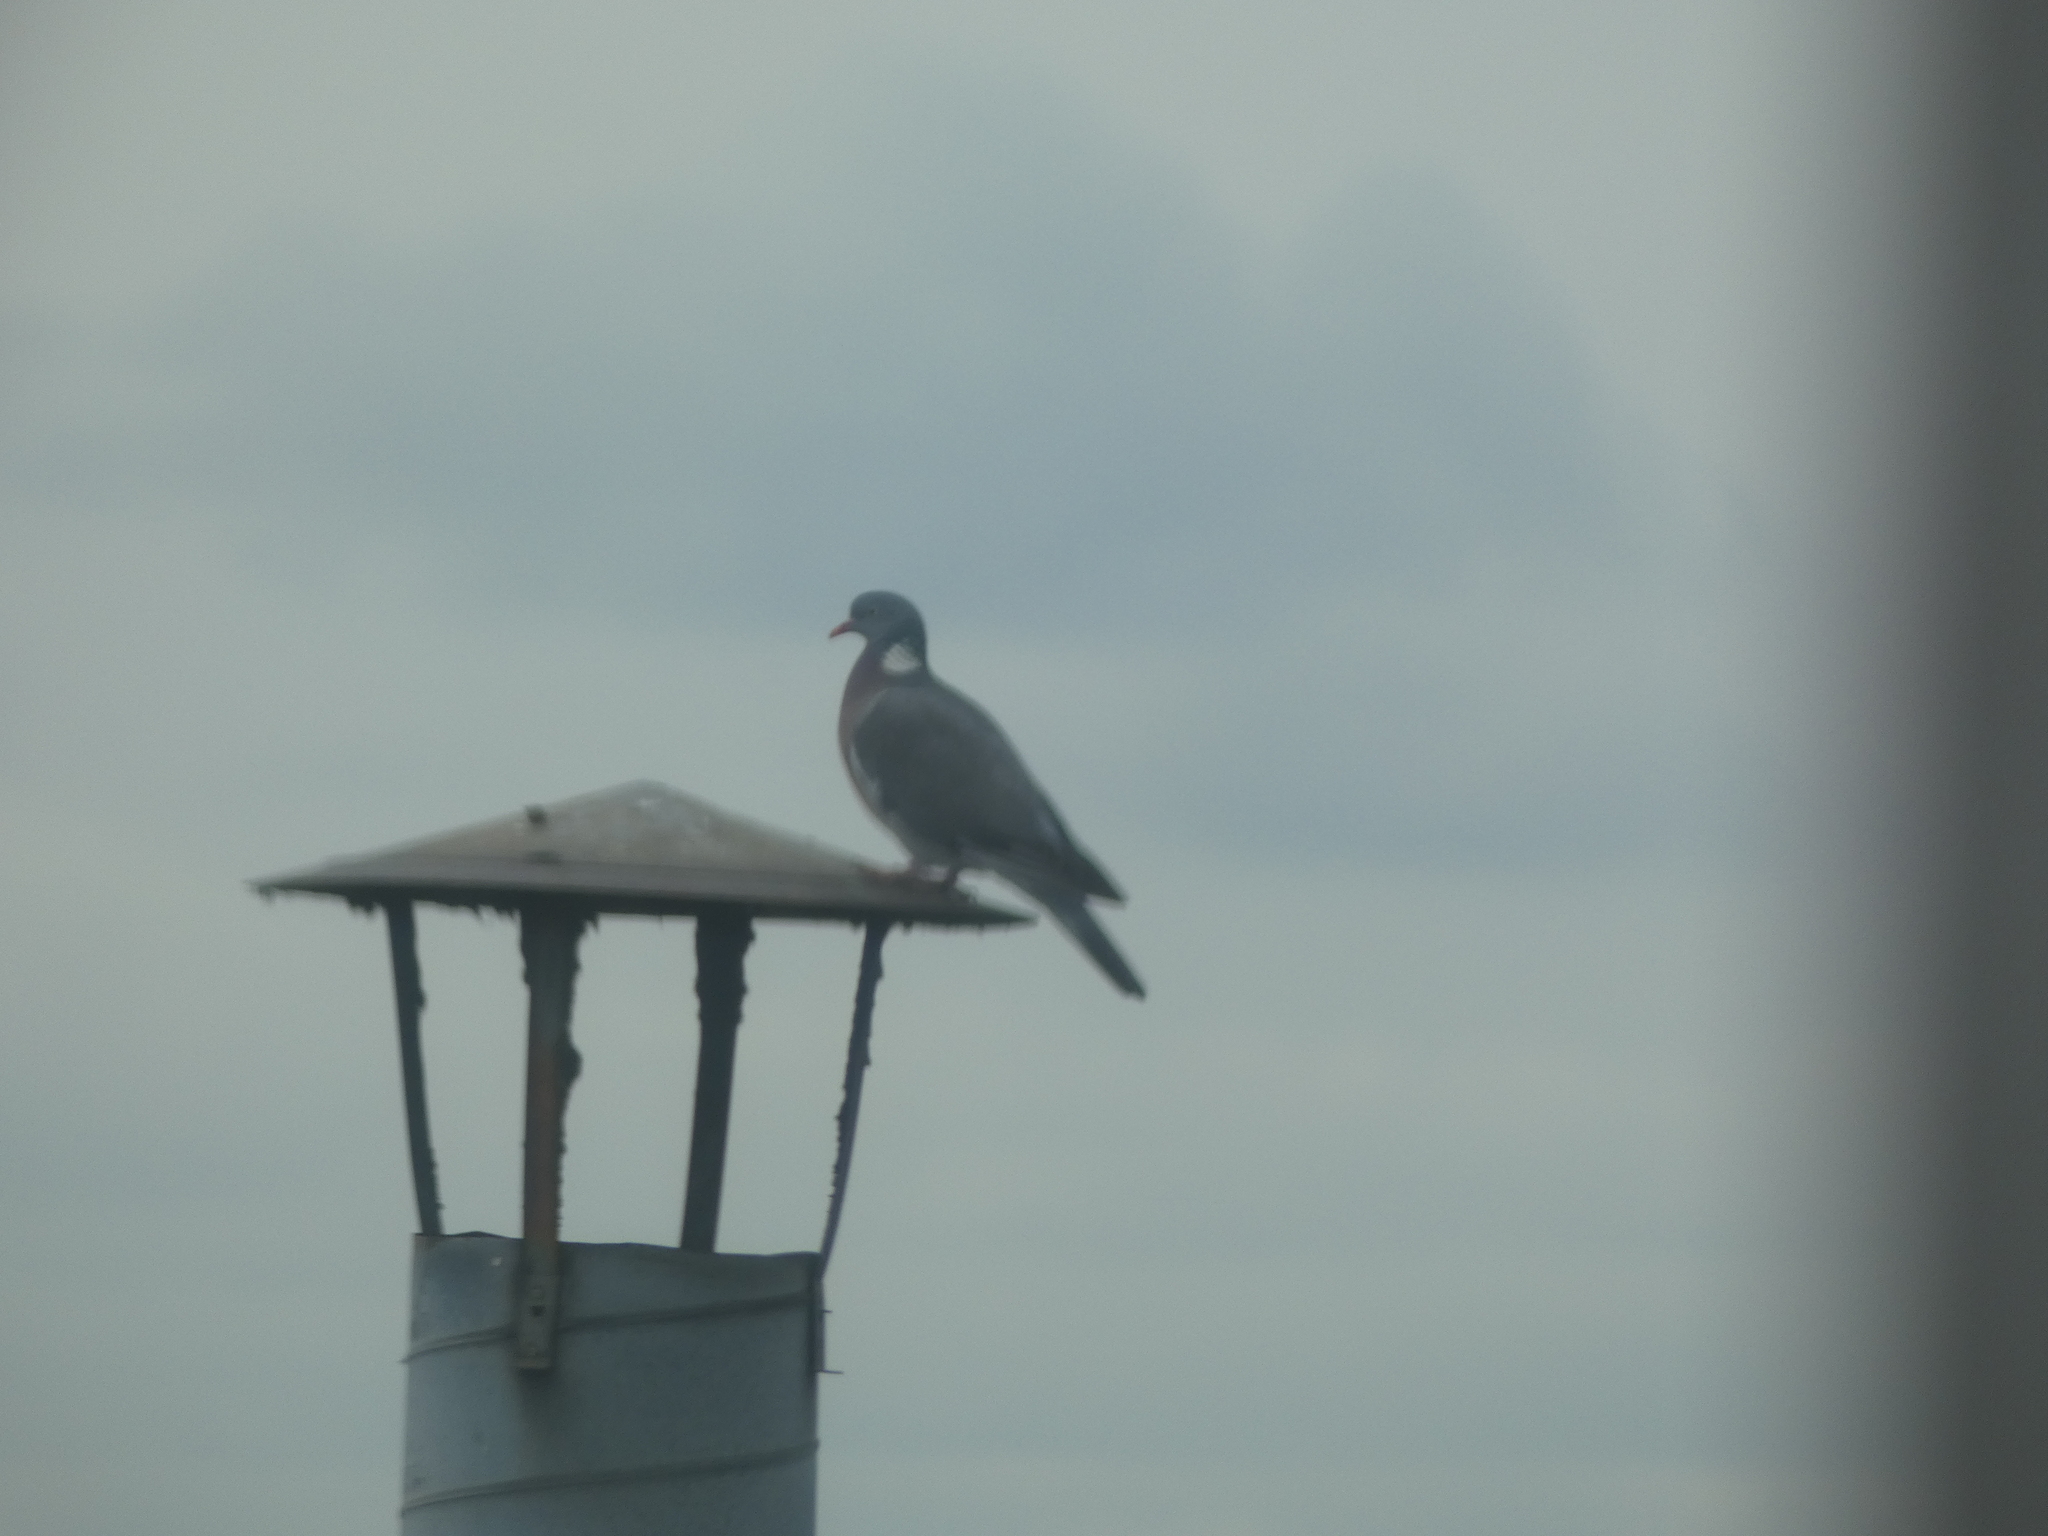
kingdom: Animalia
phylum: Chordata
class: Aves
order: Columbiformes
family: Columbidae
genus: Columba
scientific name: Columba palumbus
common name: Common wood pigeon
